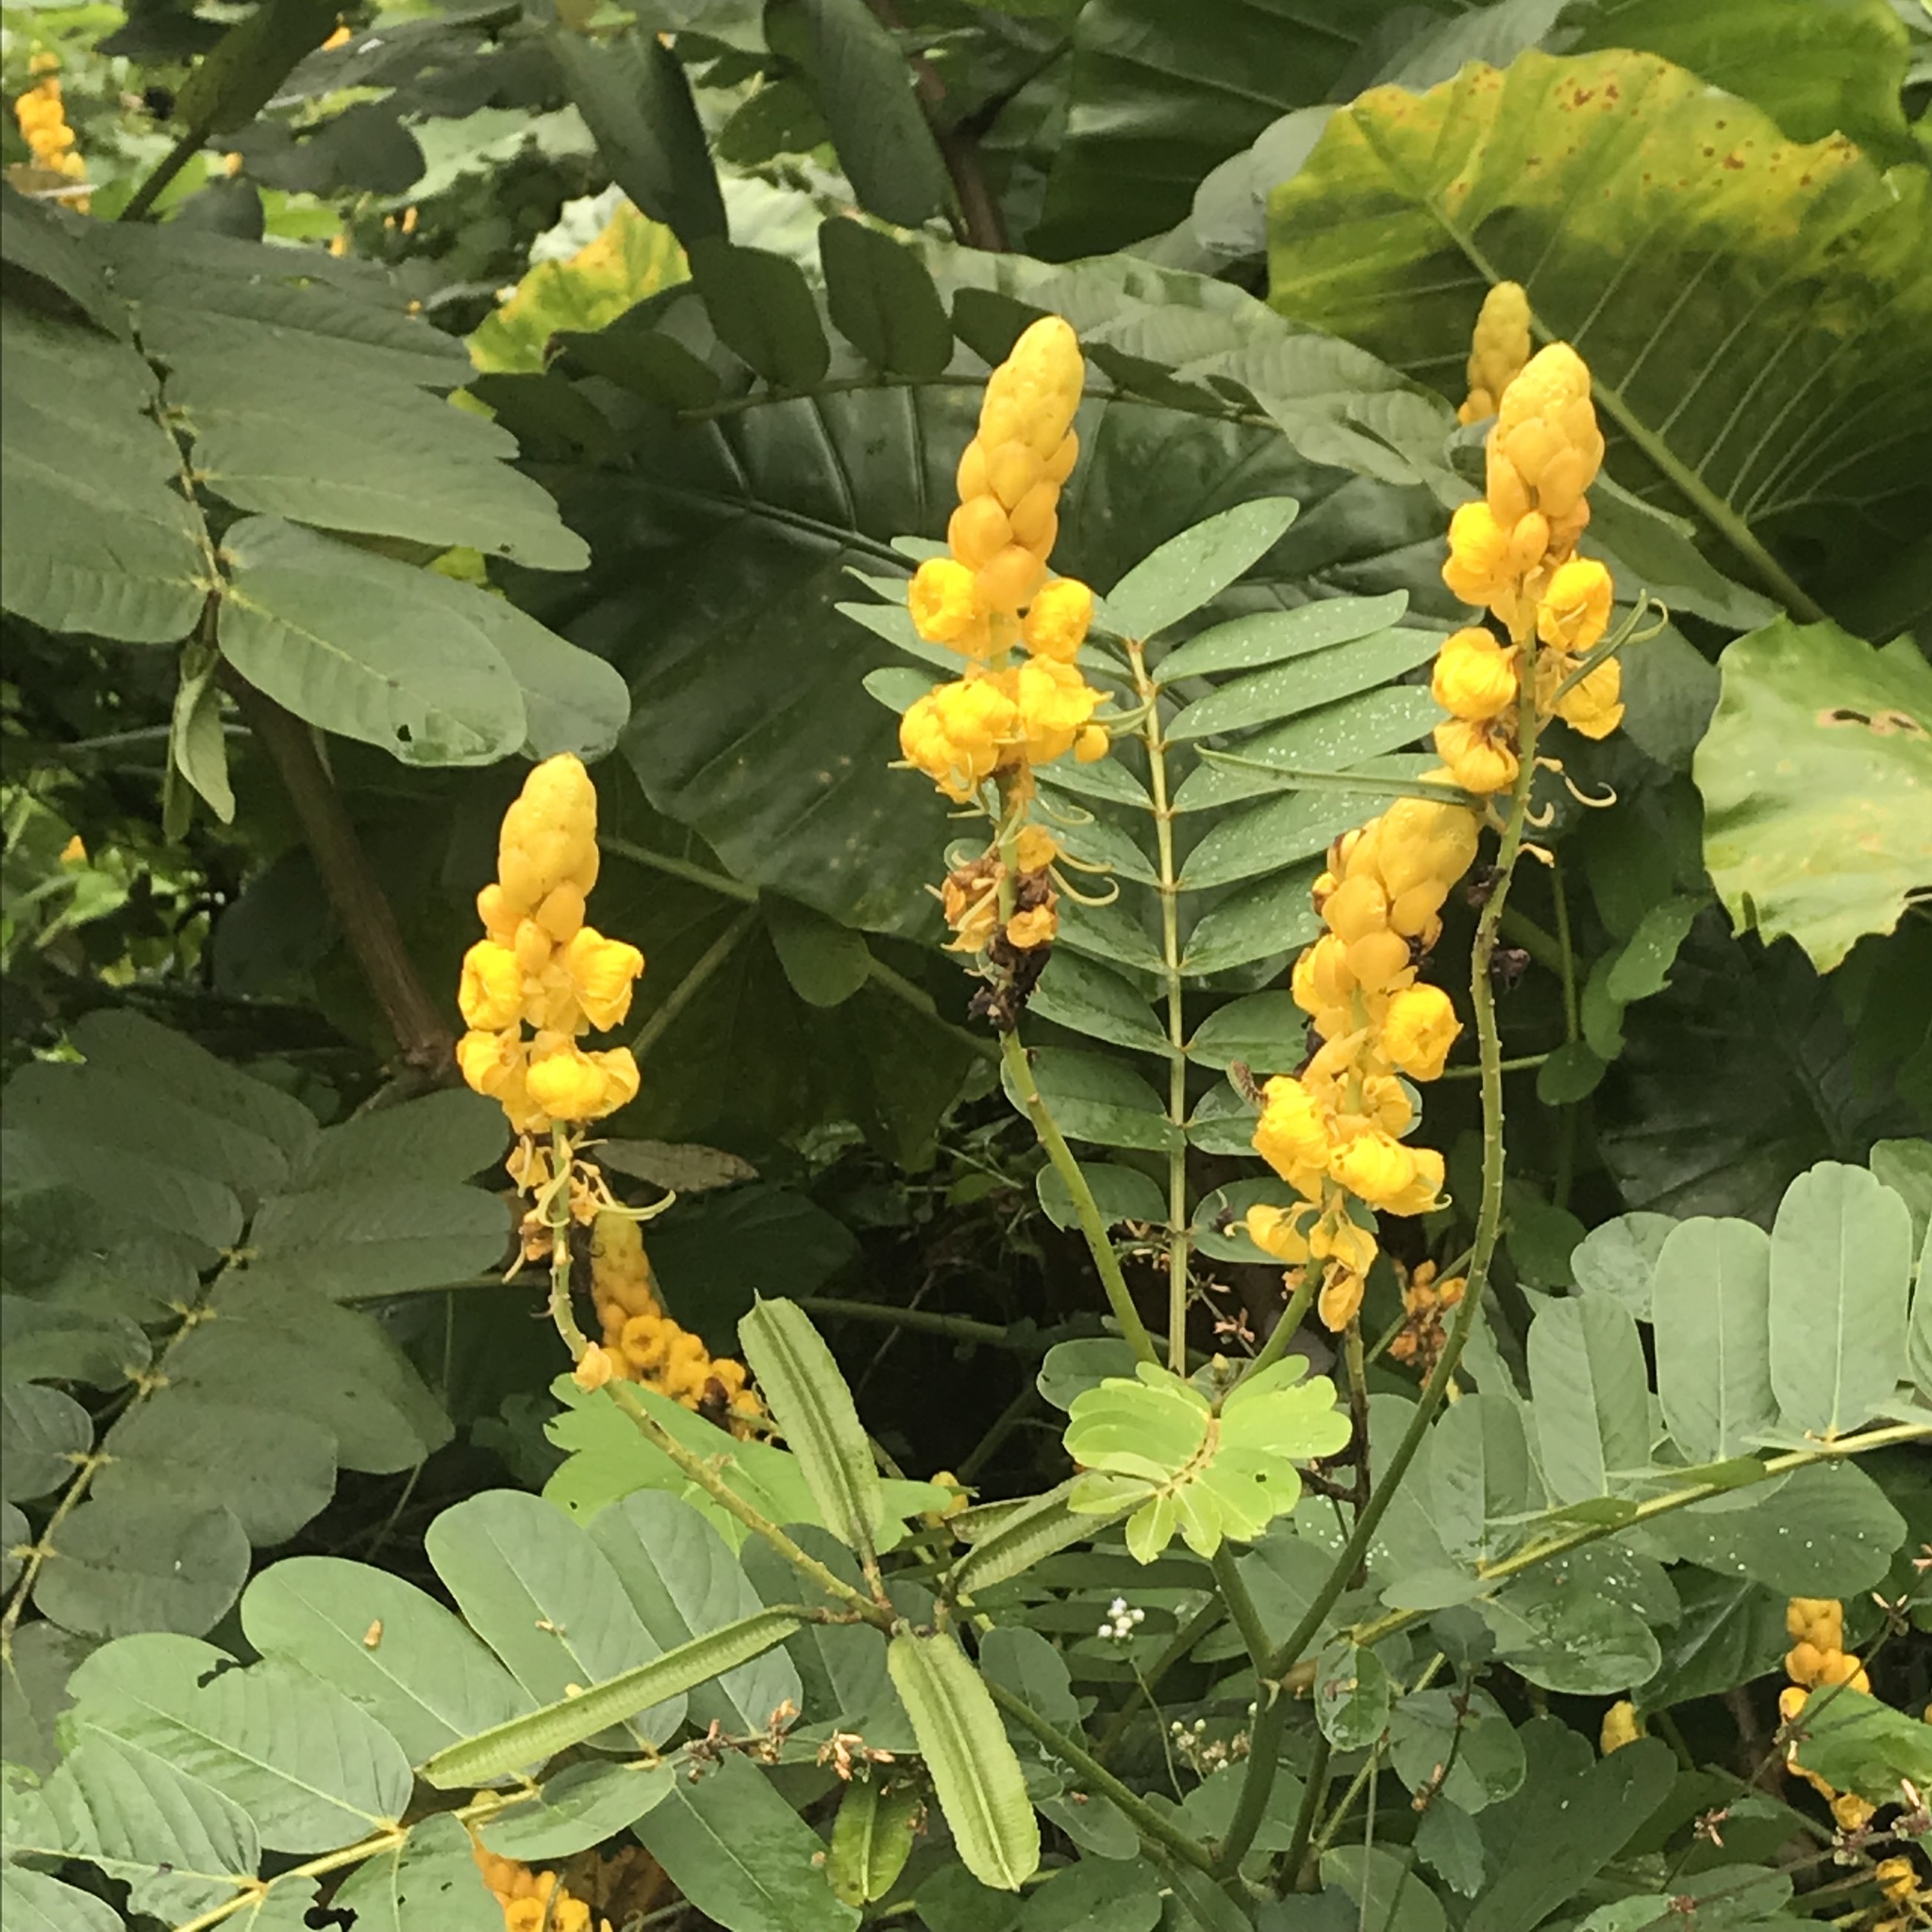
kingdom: Plantae
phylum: Tracheophyta
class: Magnoliopsida
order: Fabales
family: Fabaceae
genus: Senna
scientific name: Senna alata
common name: Emperor's candlesticks
